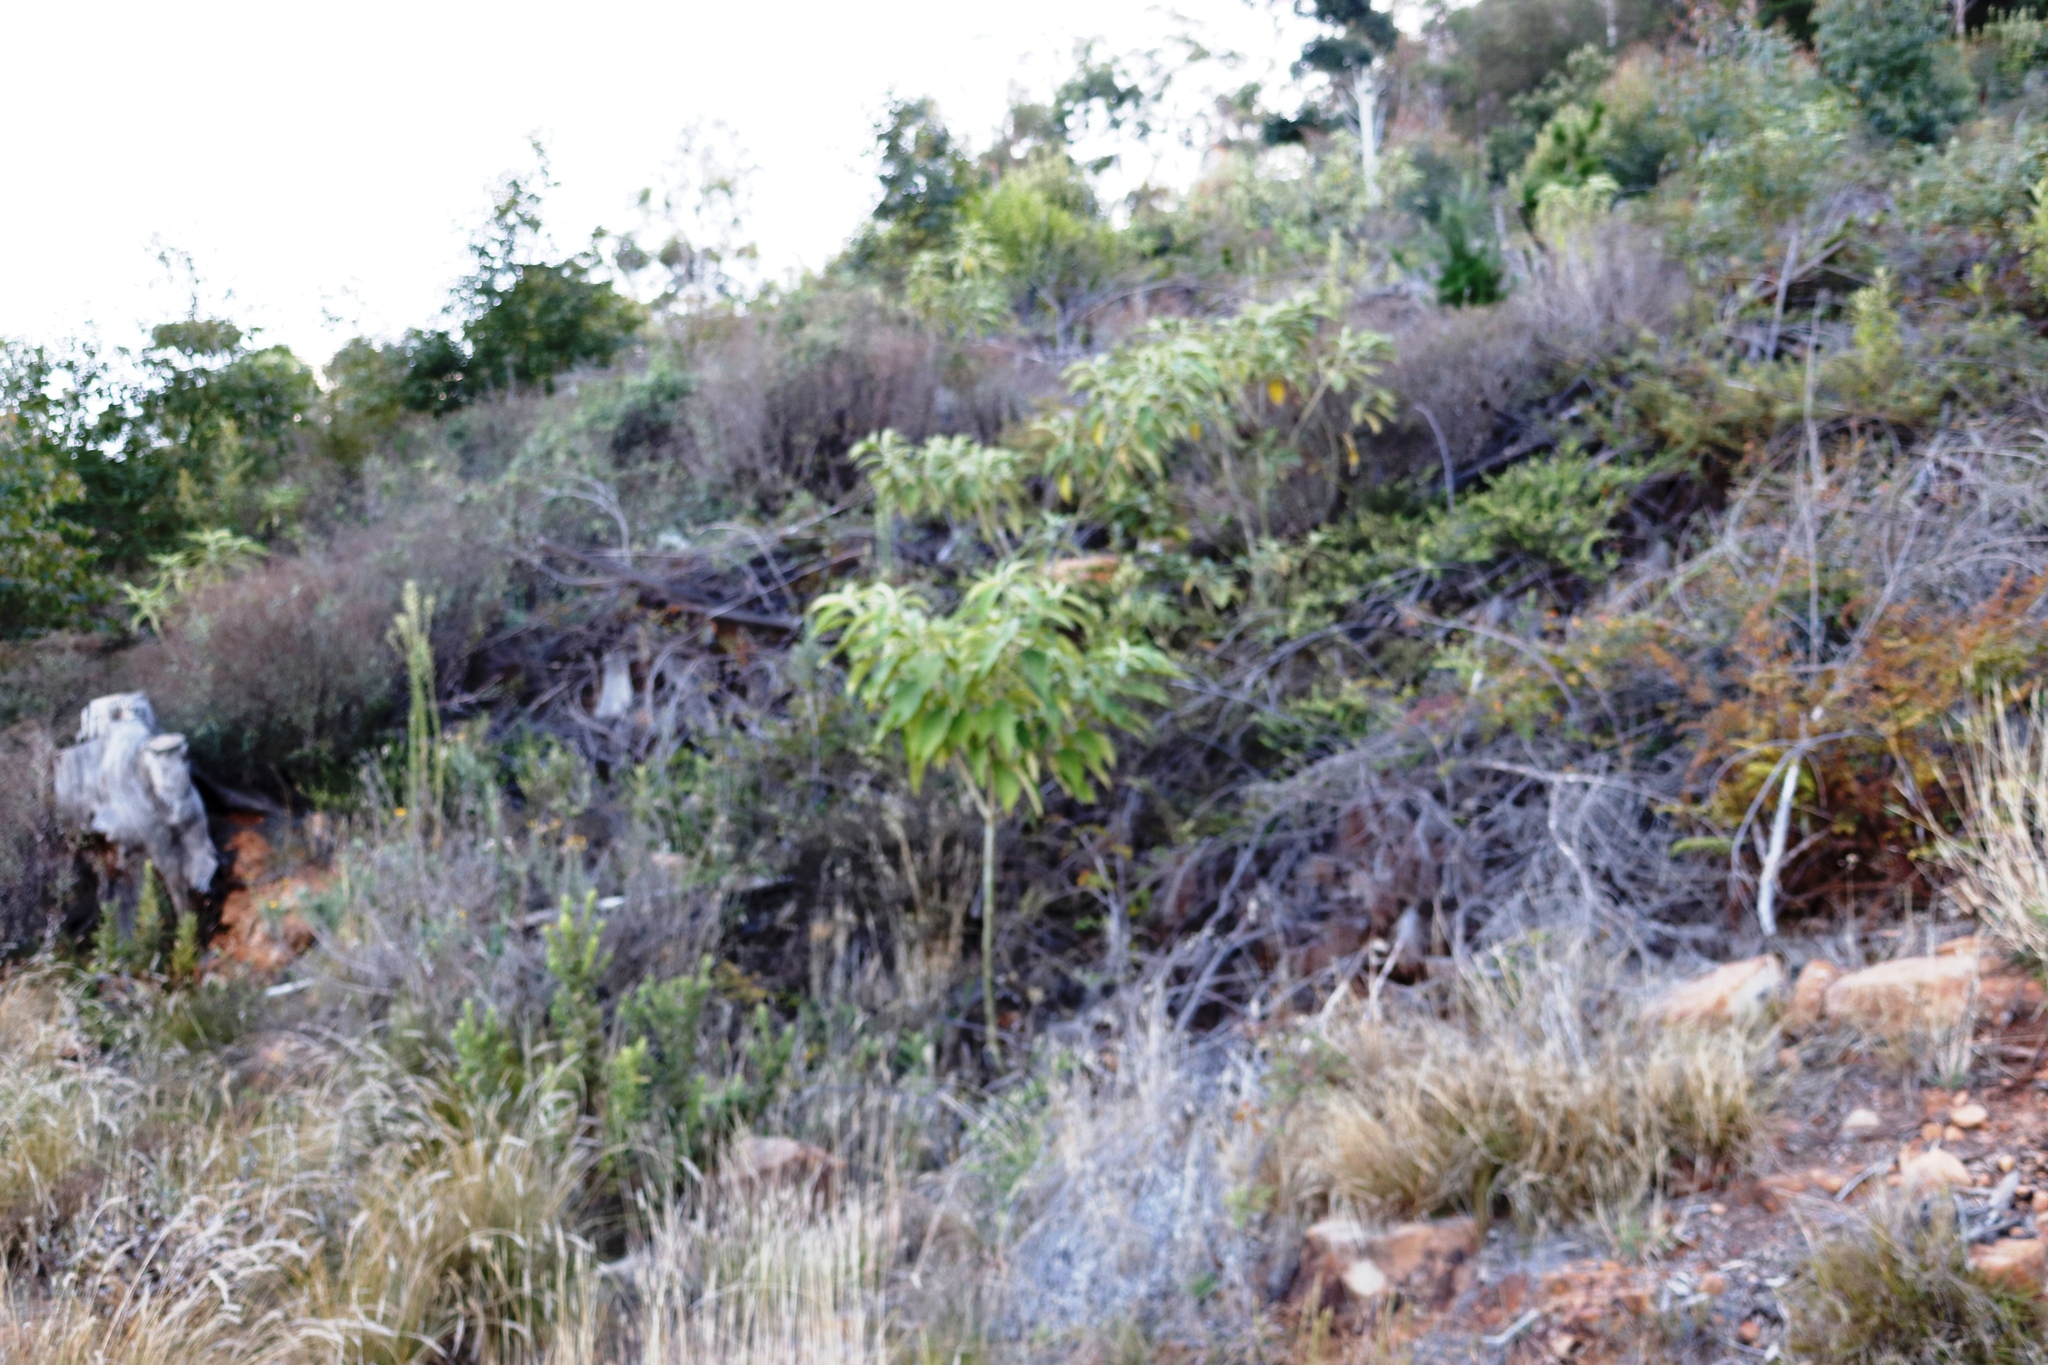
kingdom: Plantae
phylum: Tracheophyta
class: Magnoliopsida
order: Solanales
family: Solanaceae
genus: Solanum
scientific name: Solanum mauritianum
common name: Earleaf nightshade
